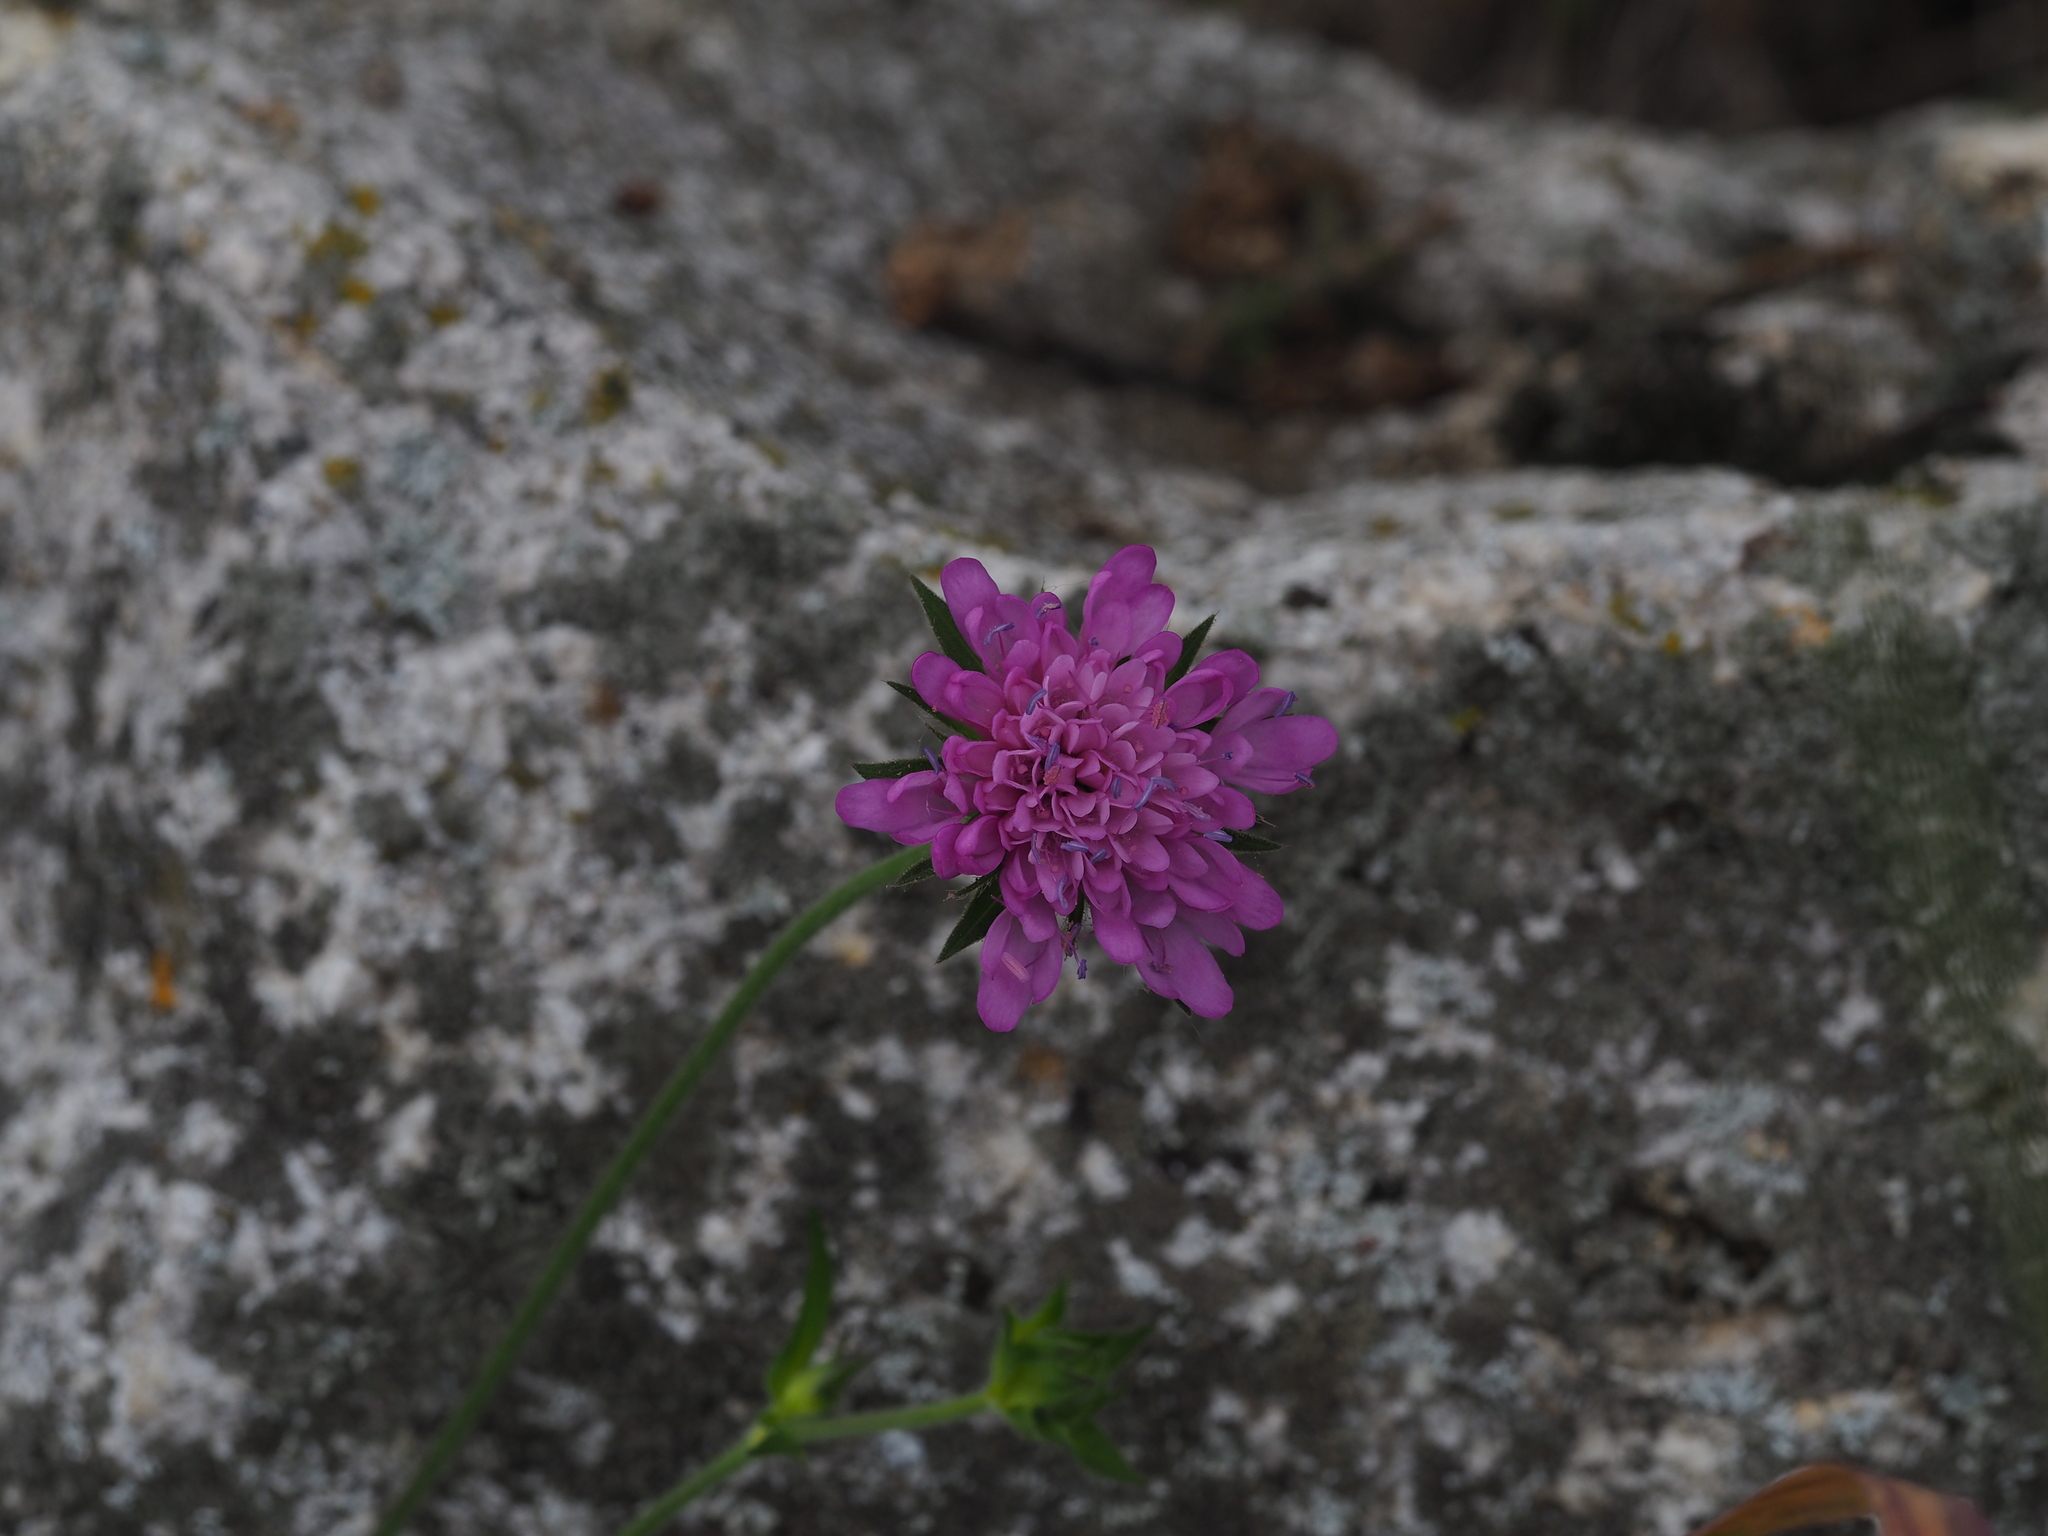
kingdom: Plantae
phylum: Tracheophyta
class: Magnoliopsida
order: Dipsacales
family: Caprifoliaceae
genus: Knautia
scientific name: Knautia drymeia
